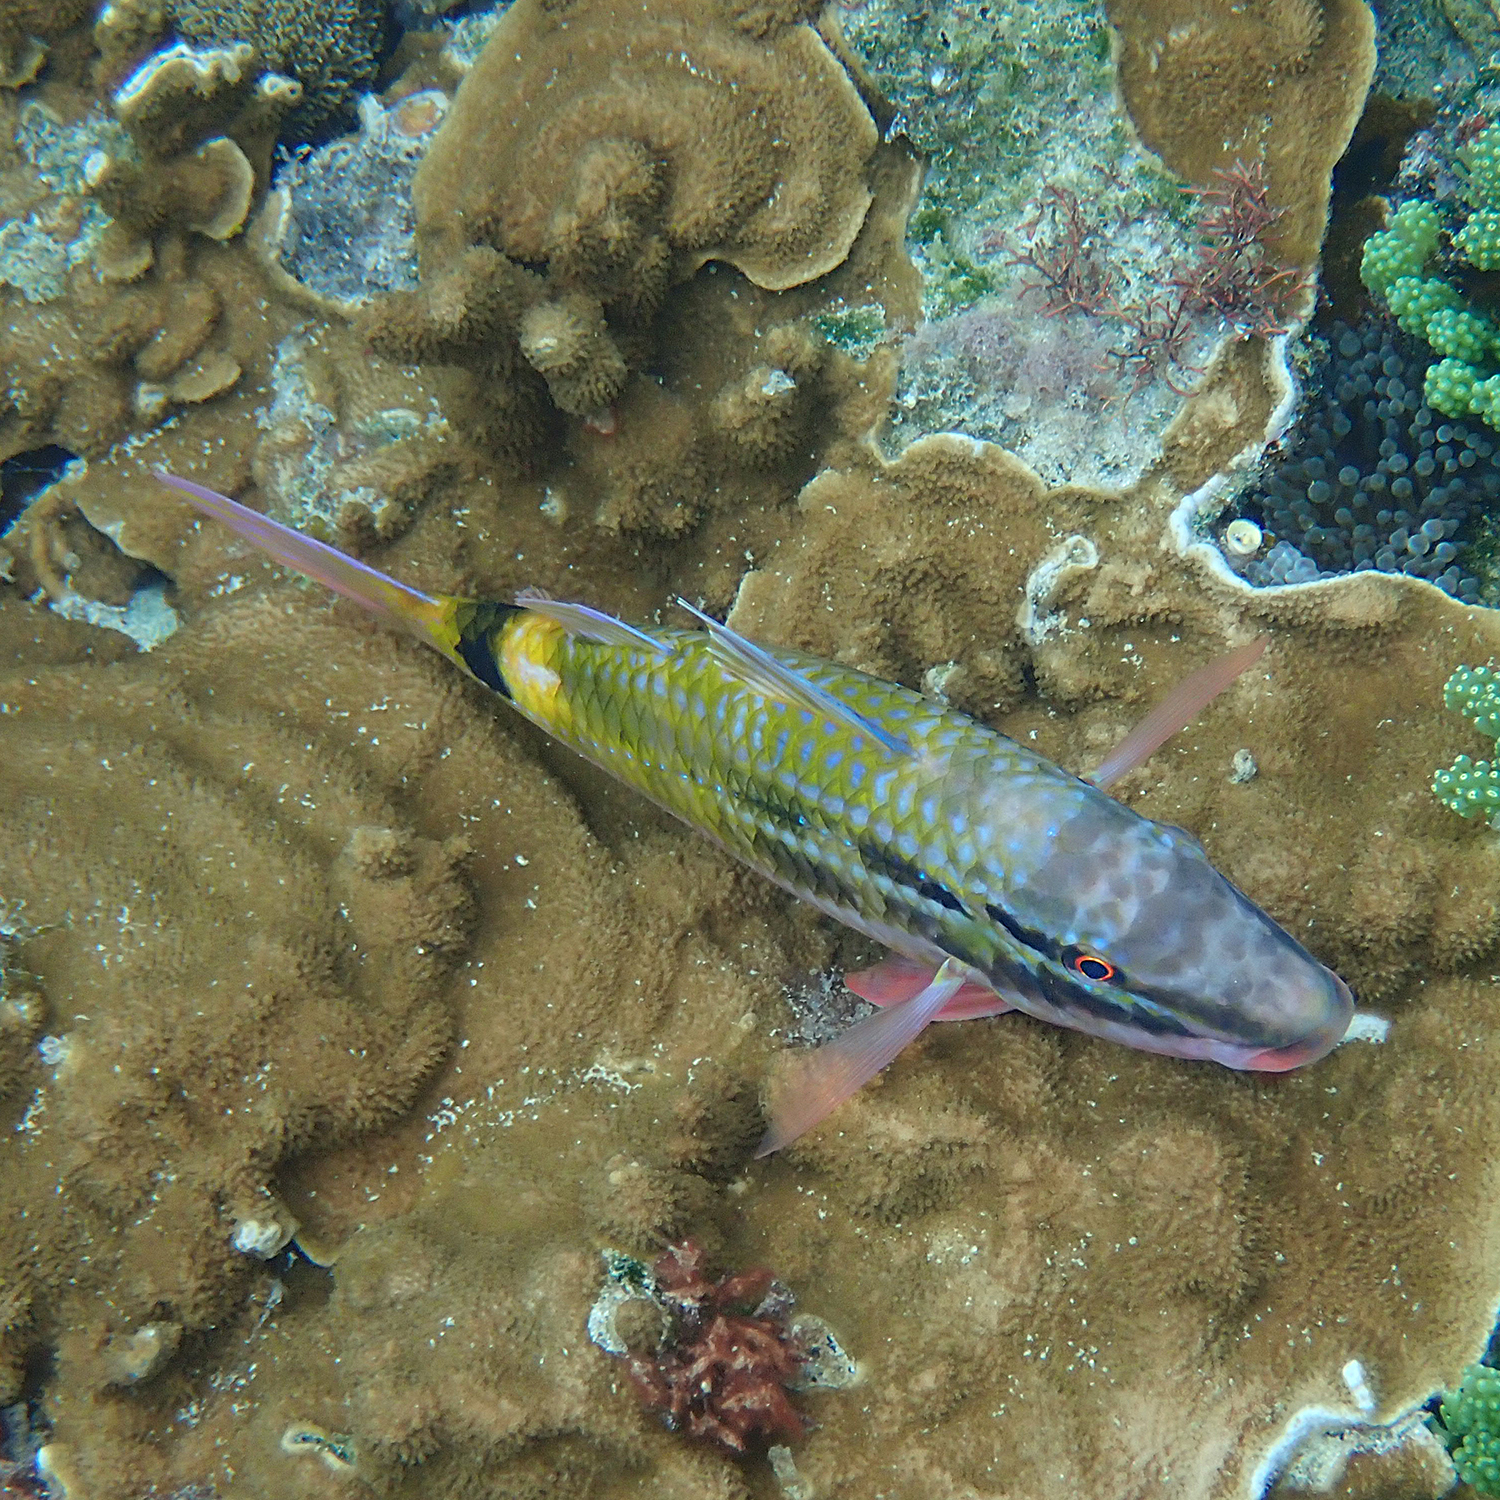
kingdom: Animalia
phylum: Chordata
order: Perciformes
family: Mullidae
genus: Parupeneus
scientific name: Parupeneus spilurus
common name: Blackspot goatfish
